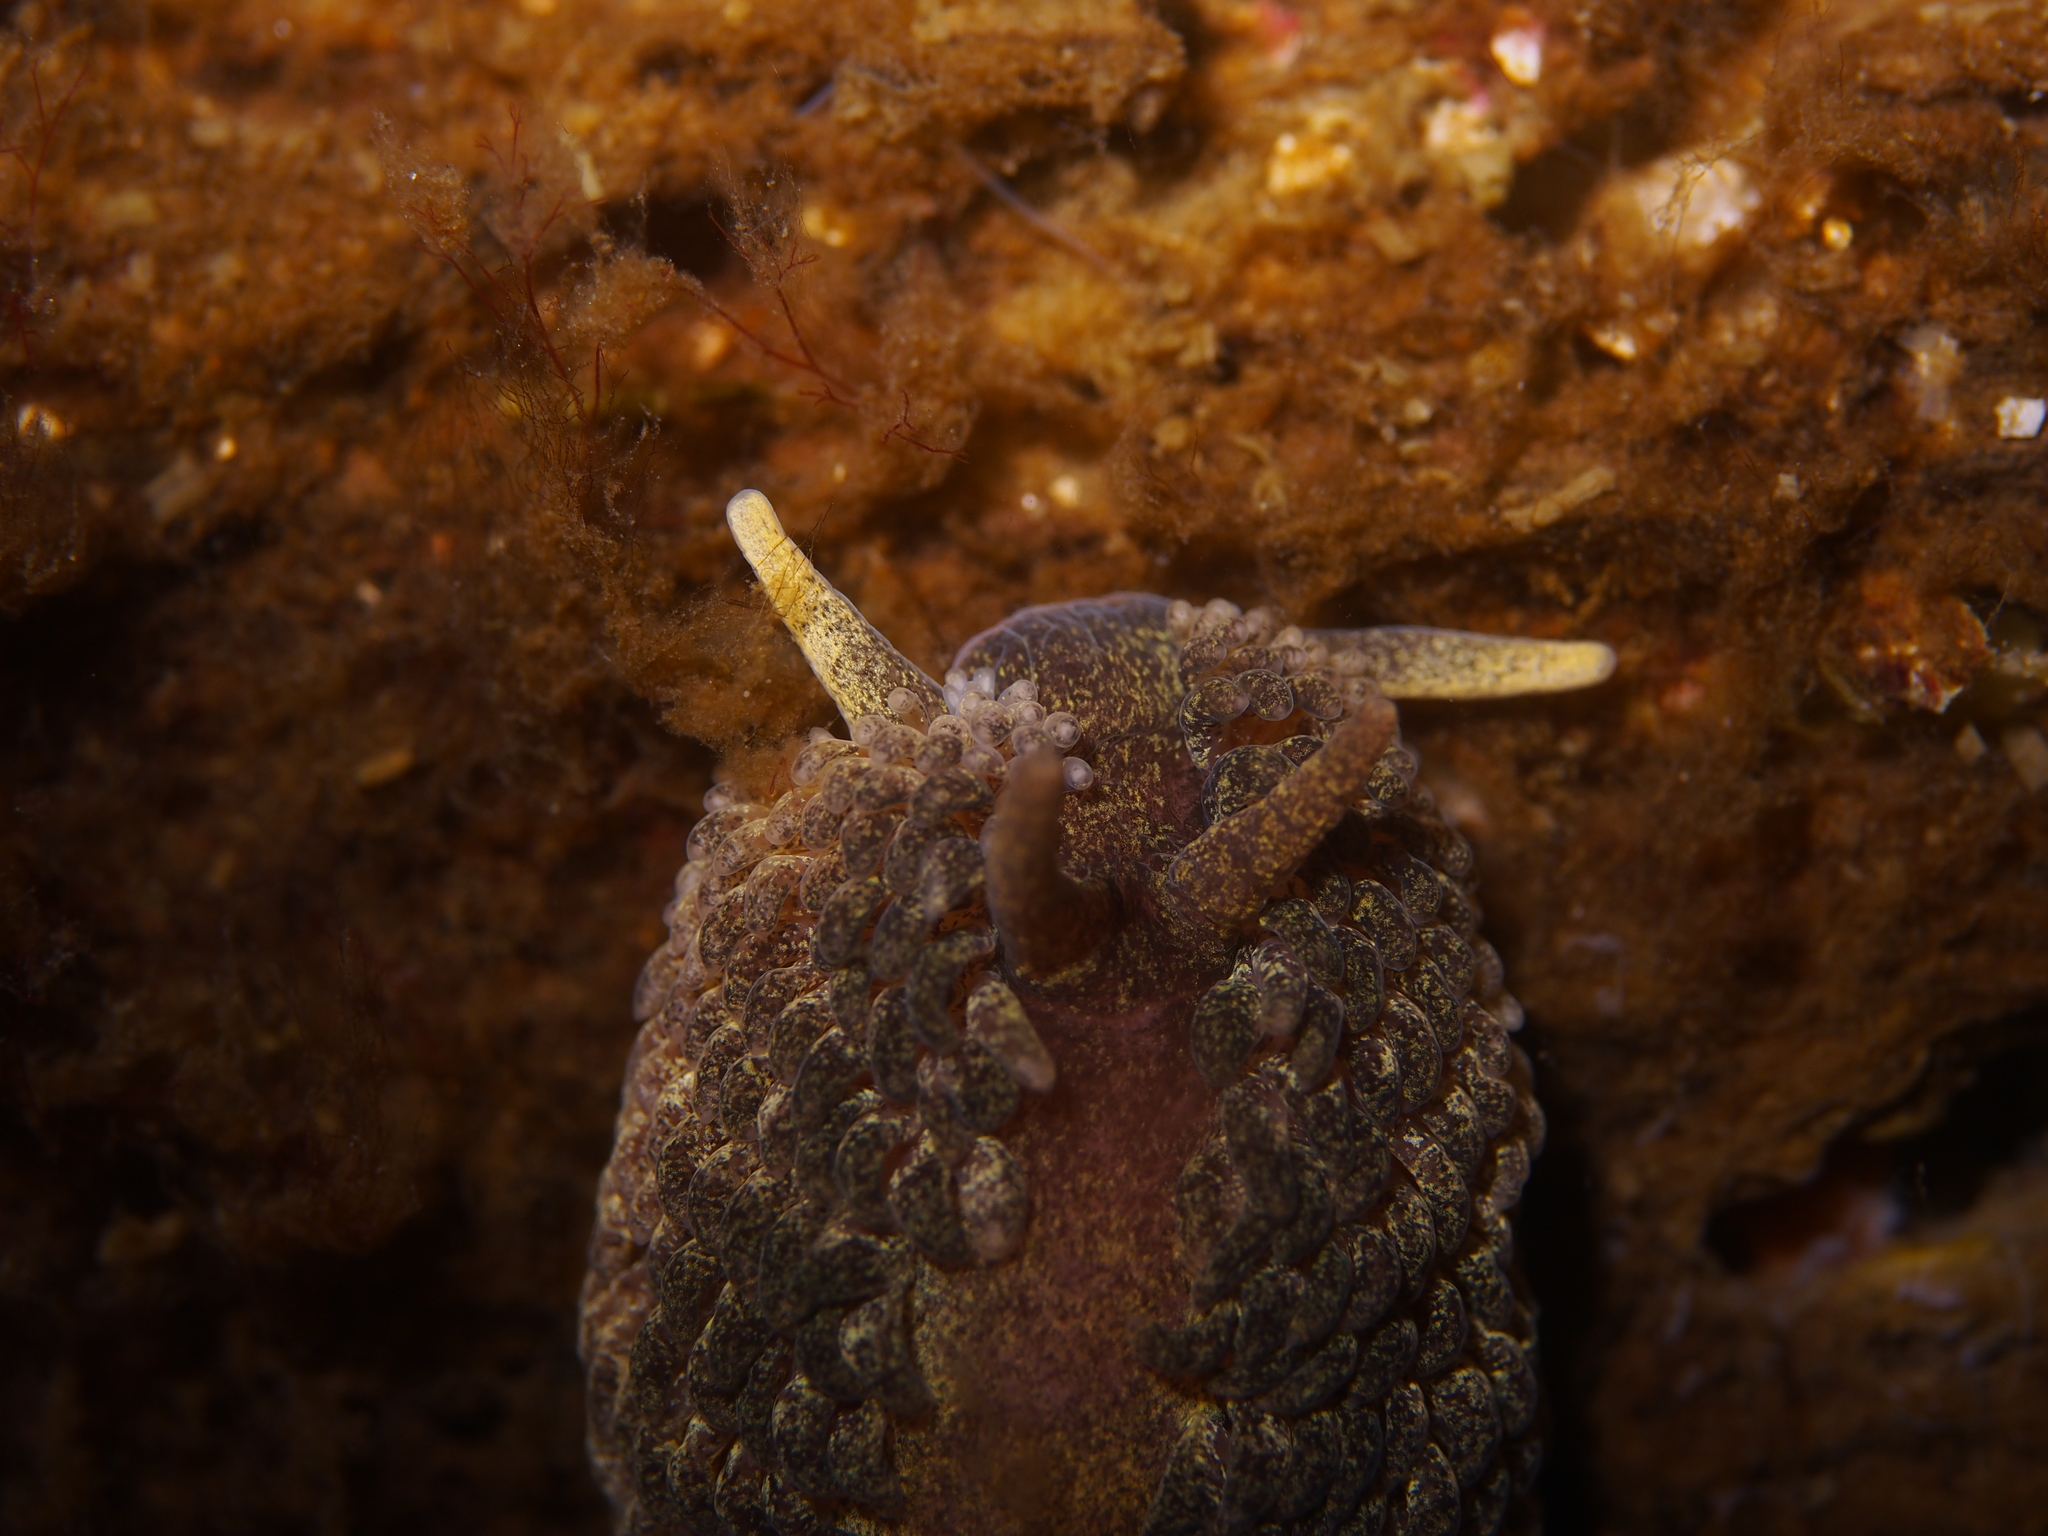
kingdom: Animalia
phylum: Mollusca
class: Gastropoda
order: Nudibranchia
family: Aeolidiidae
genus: Aeolidia
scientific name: Aeolidia papillosa
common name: Common grey sea slug
